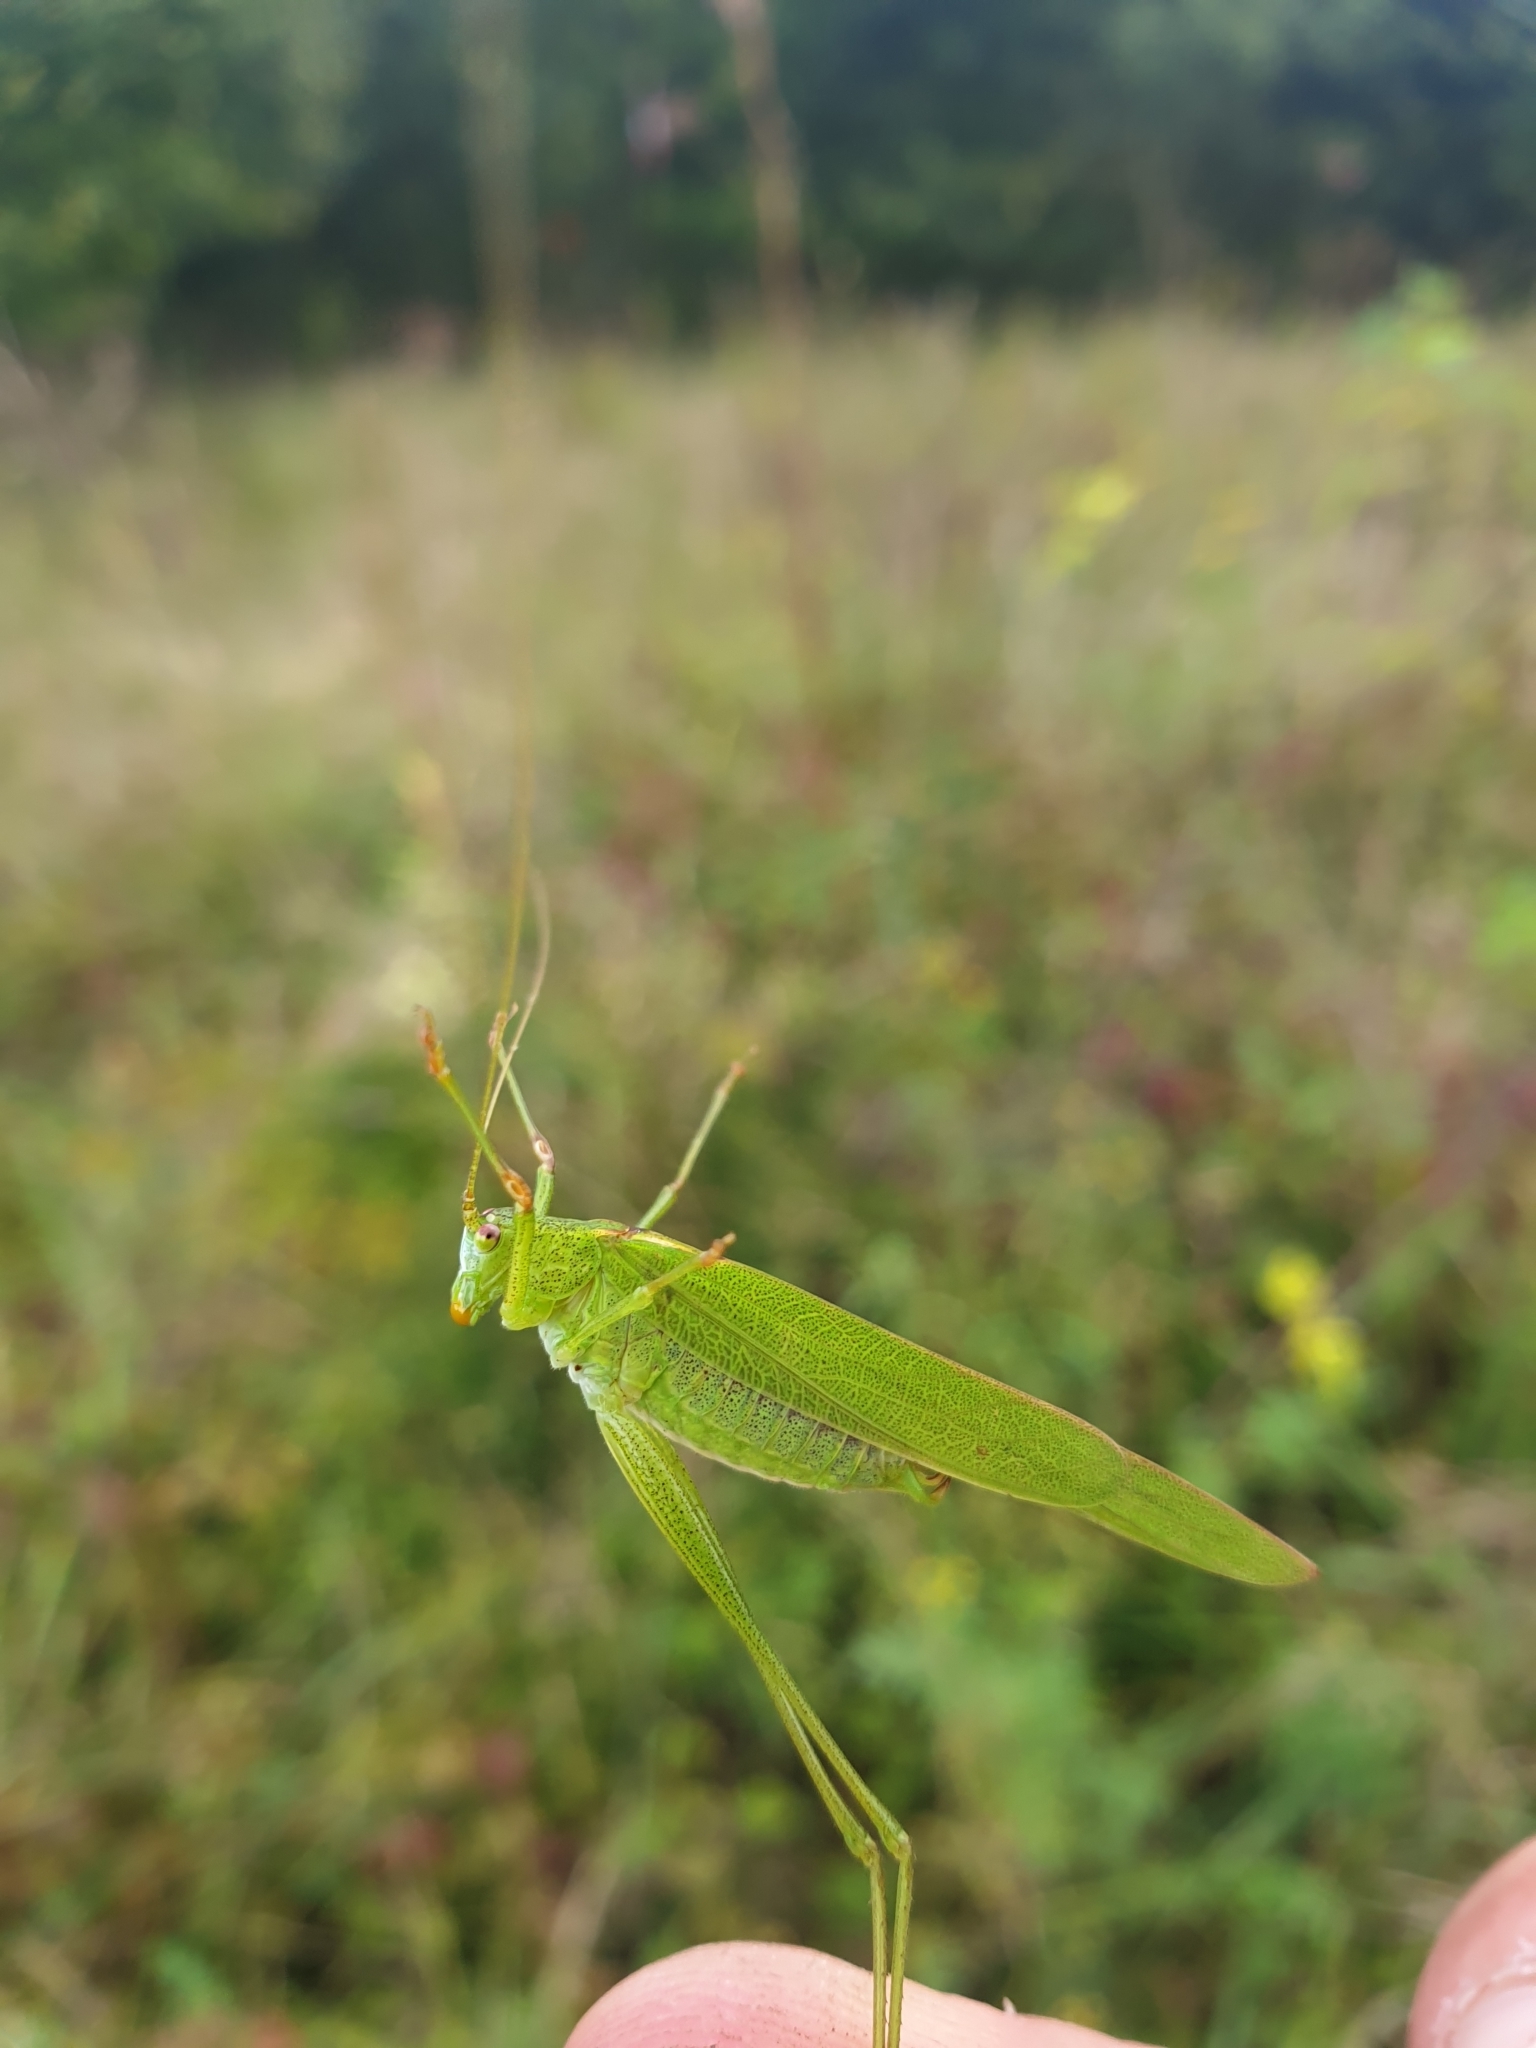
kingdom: Animalia
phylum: Arthropoda
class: Insecta
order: Orthoptera
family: Tettigoniidae
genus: Phaneroptera
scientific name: Phaneroptera falcata
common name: Sickle-bearing bush-cricket
